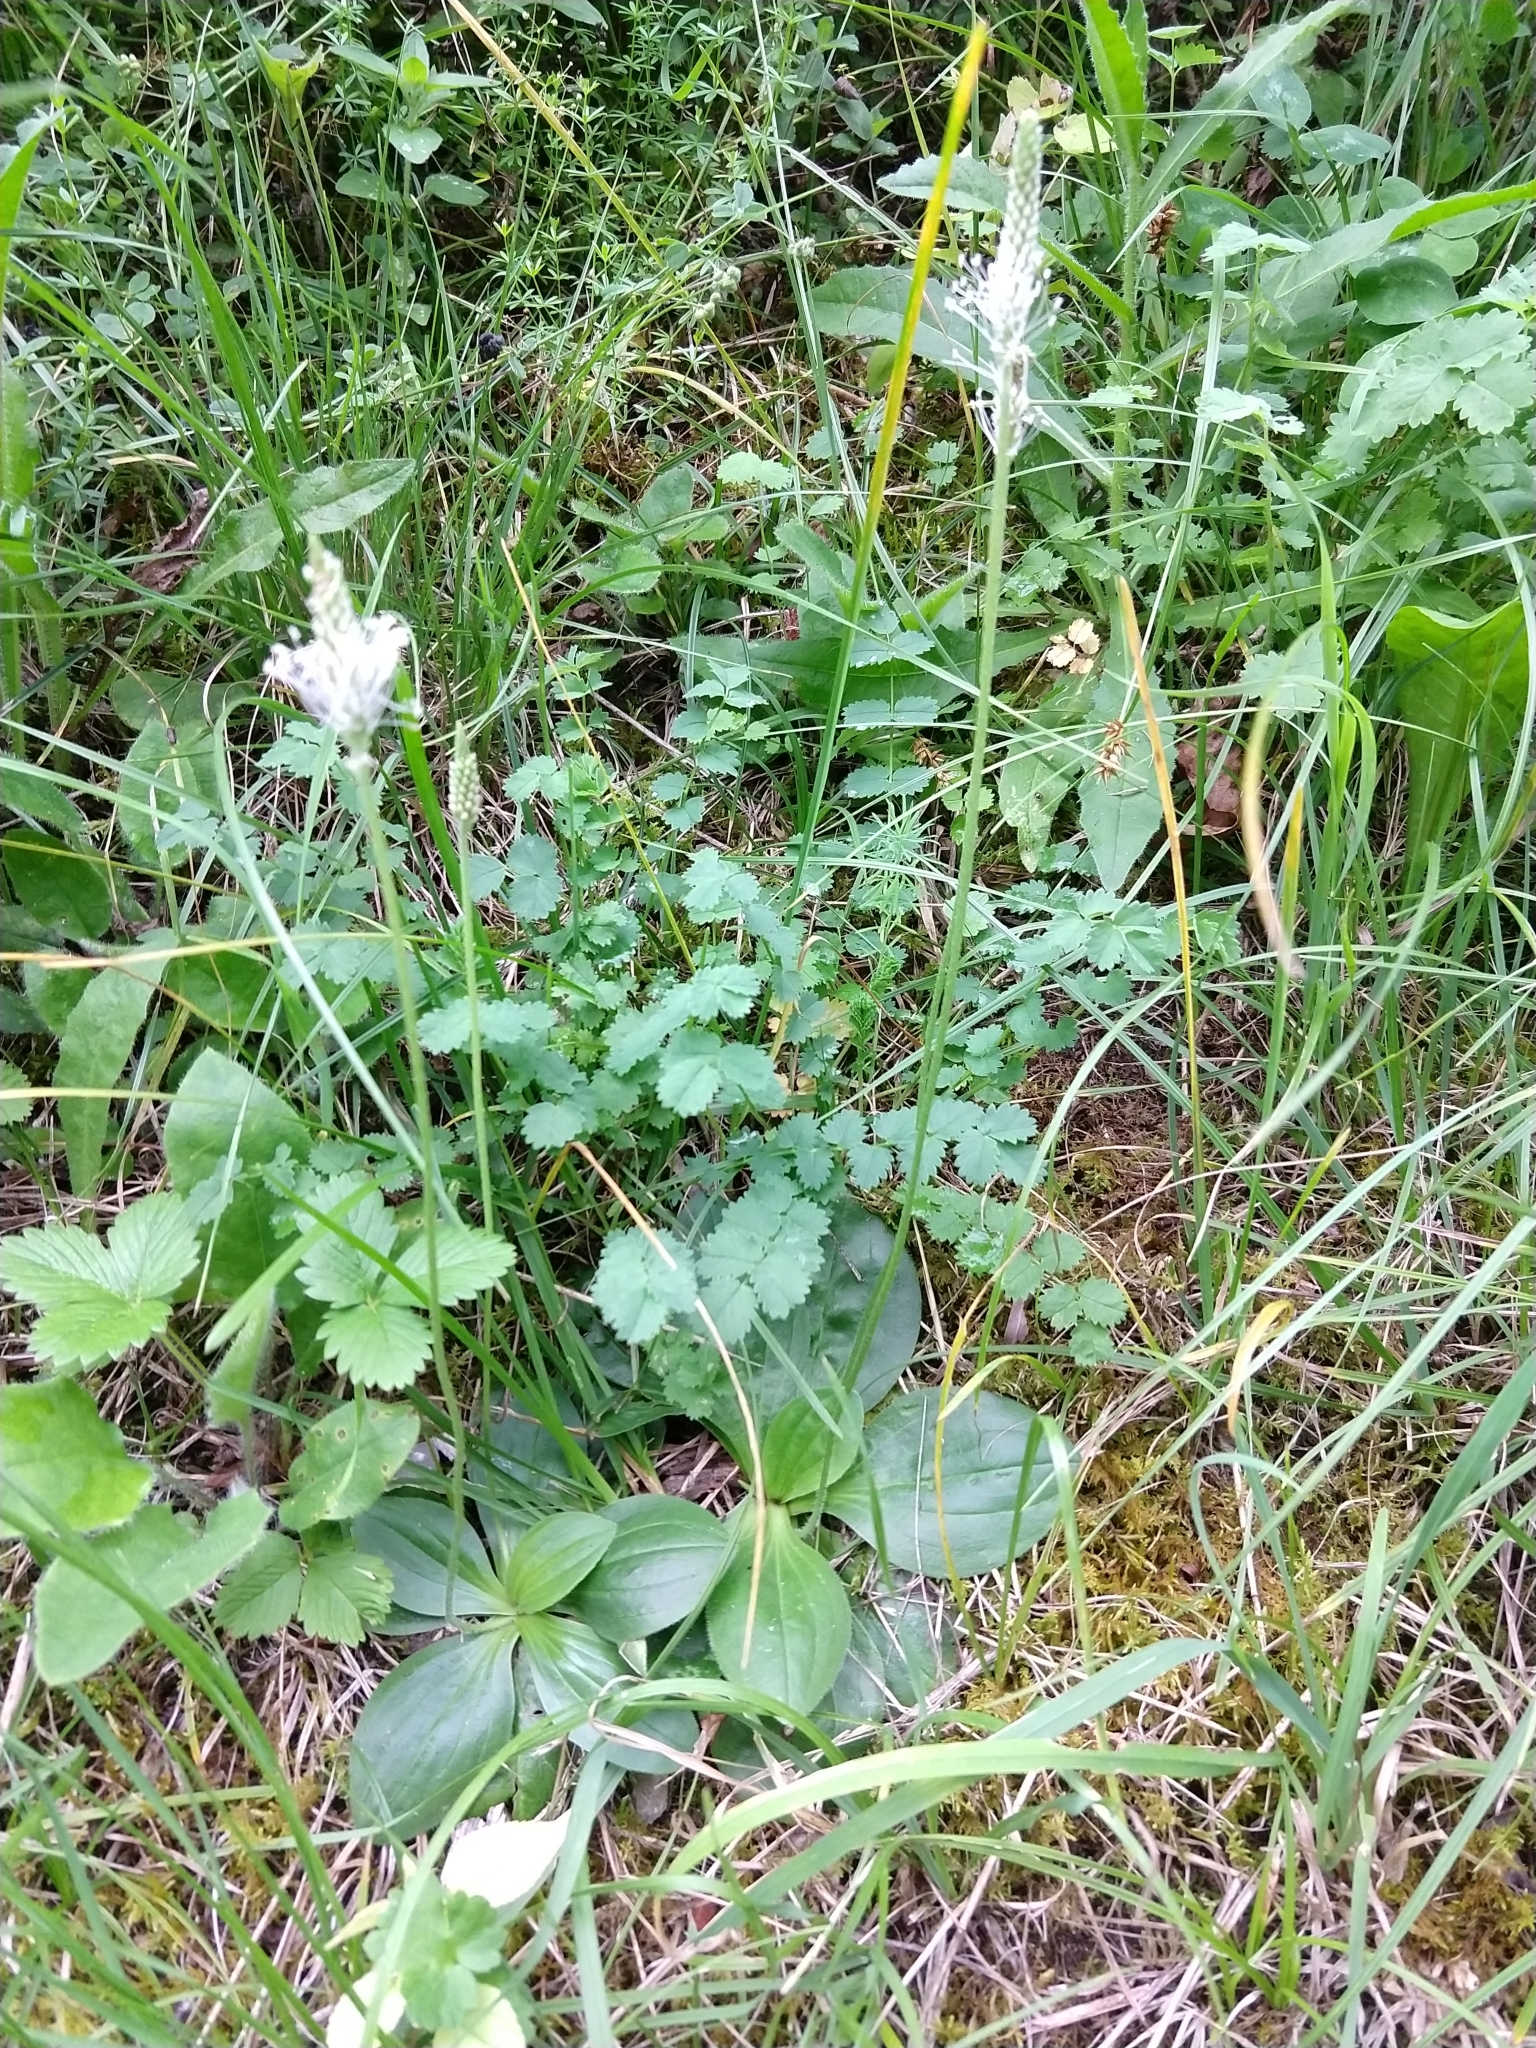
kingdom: Plantae
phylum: Tracheophyta
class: Magnoliopsida
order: Lamiales
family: Plantaginaceae
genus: Plantago
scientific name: Plantago media
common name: Hoary plantain
